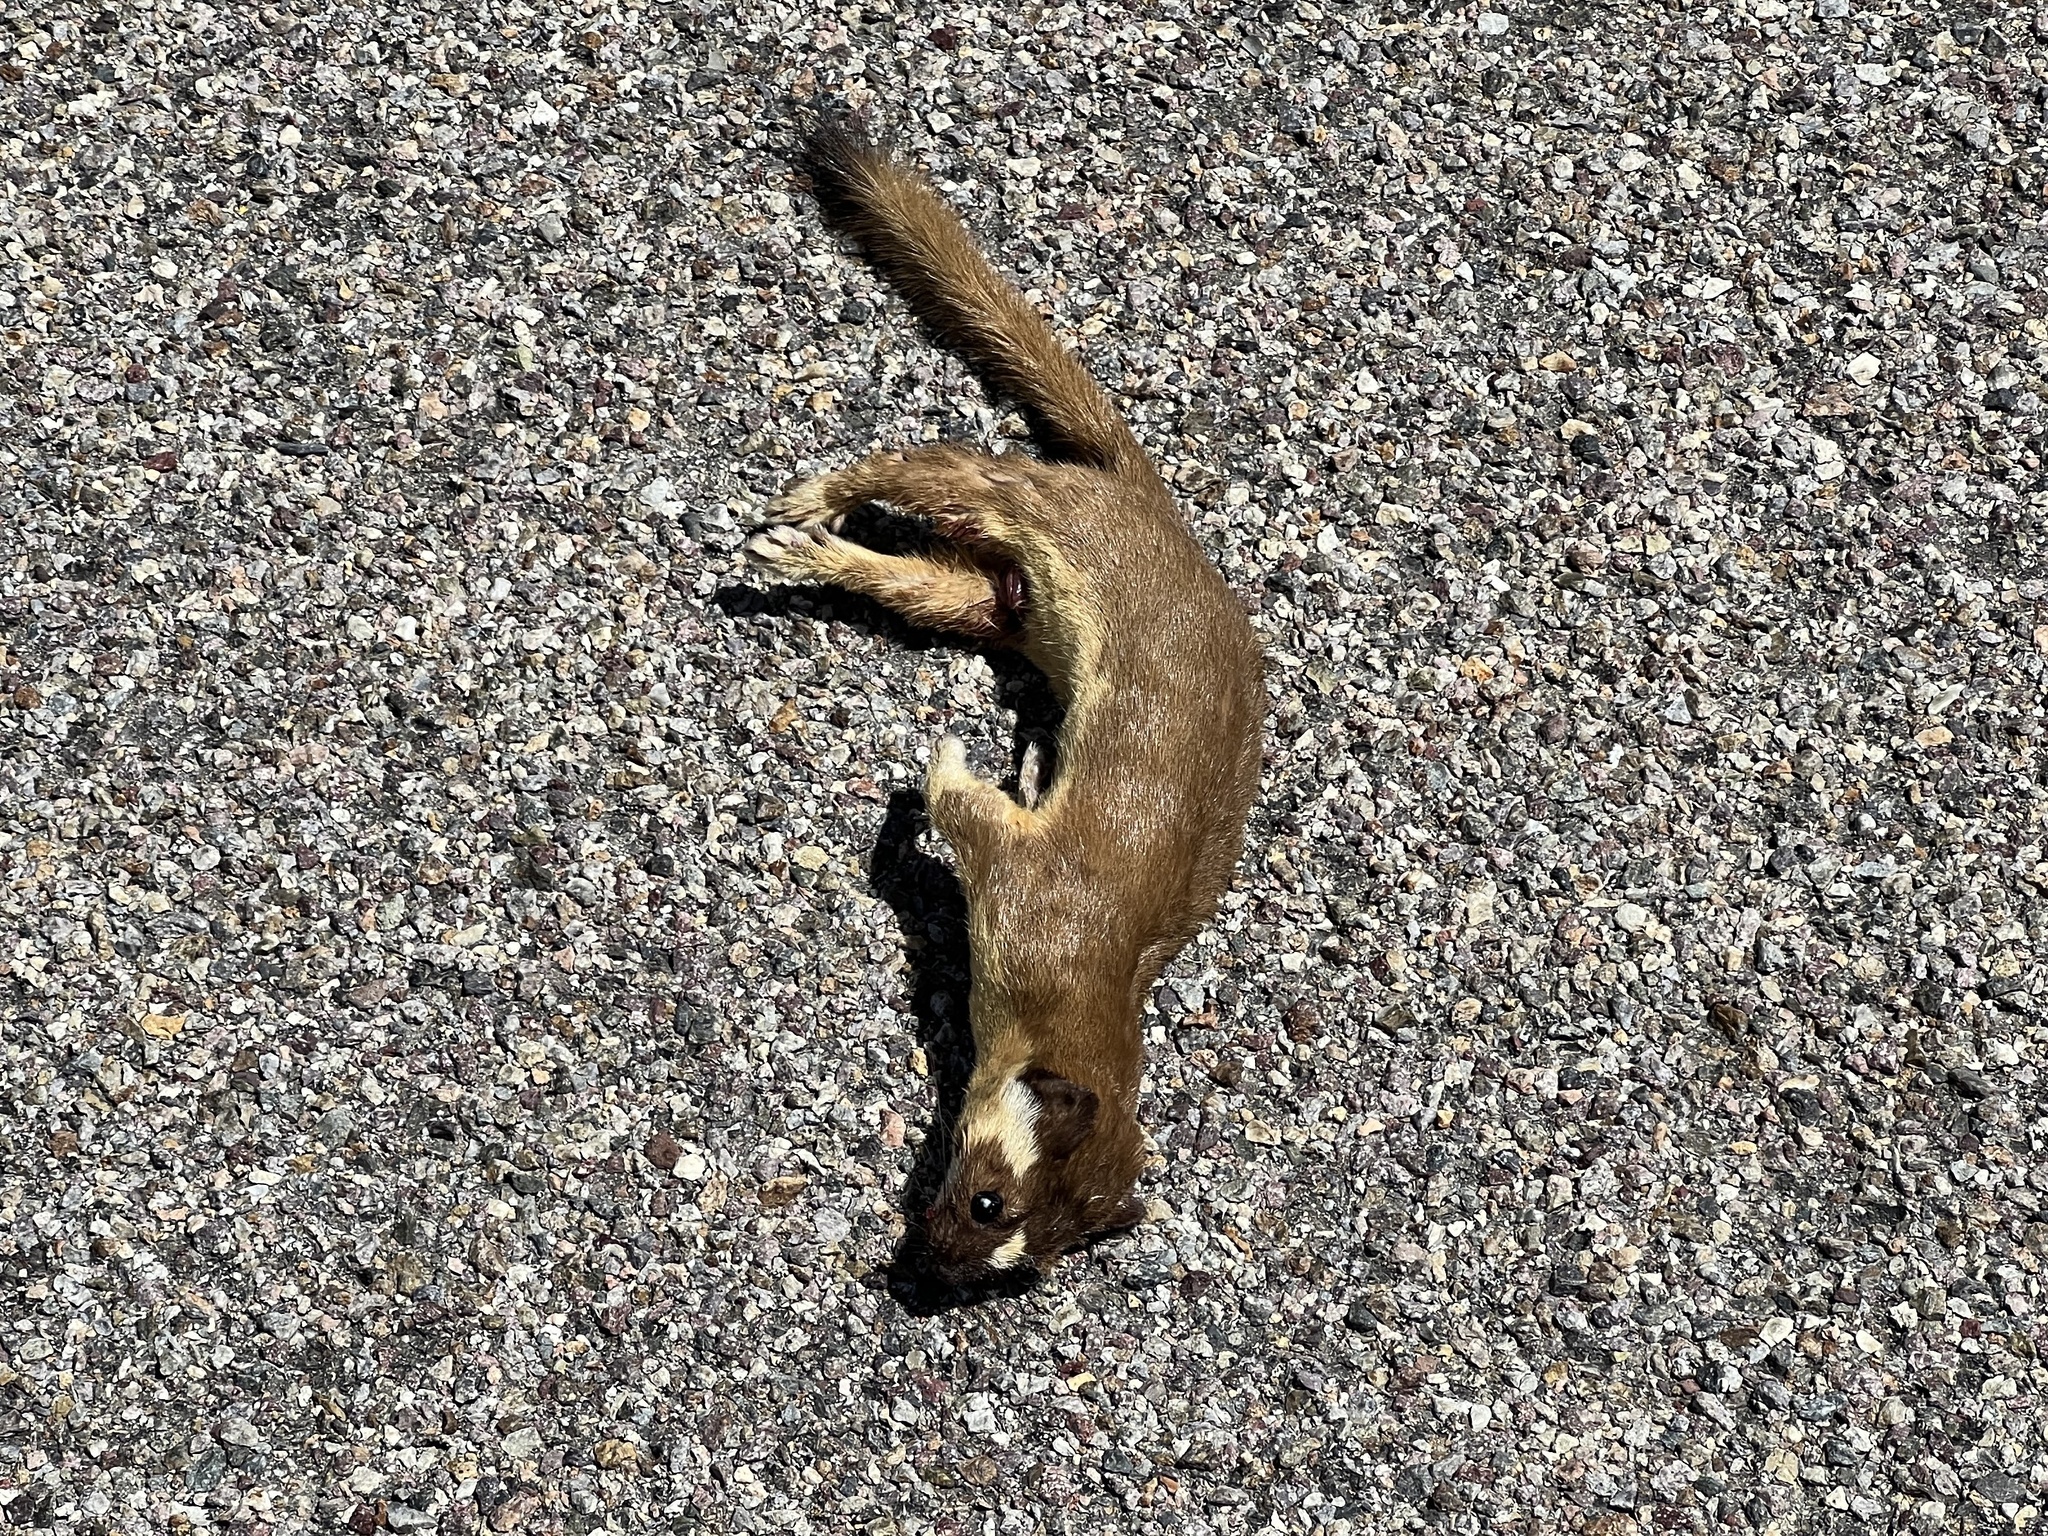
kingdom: Animalia
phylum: Chordata
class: Mammalia
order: Carnivora
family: Mustelidae
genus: Mustela
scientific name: Mustela
